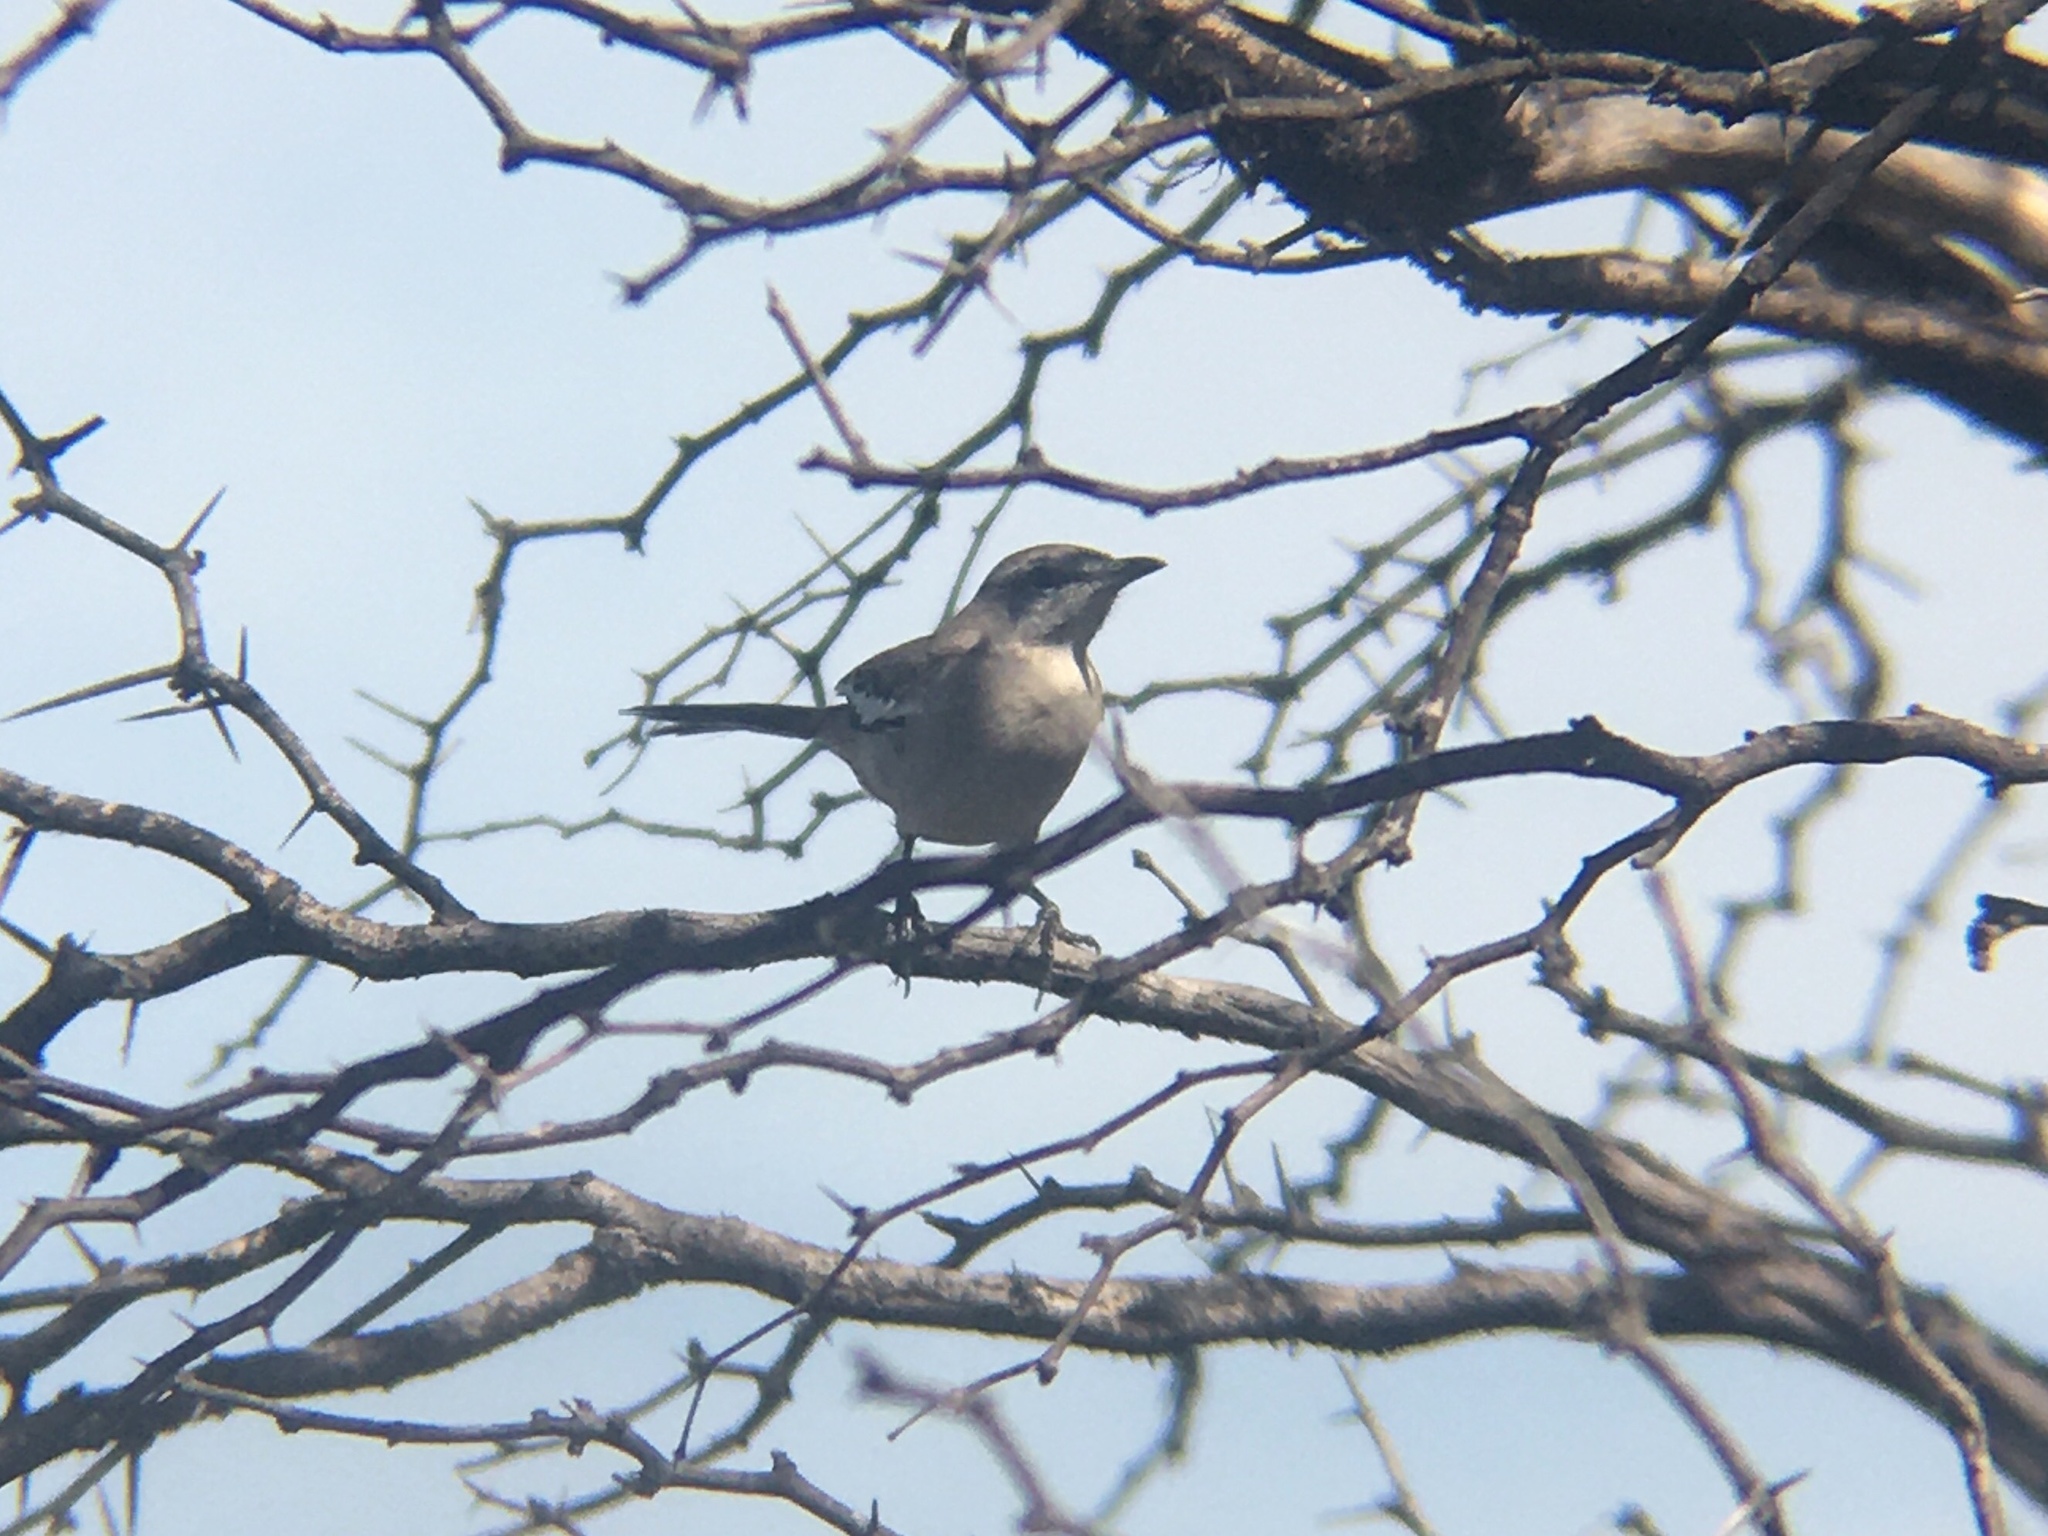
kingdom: Animalia
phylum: Chordata
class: Aves
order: Passeriformes
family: Mimidae
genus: Mimus
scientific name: Mimus triurus
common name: White-banded mockingbird
